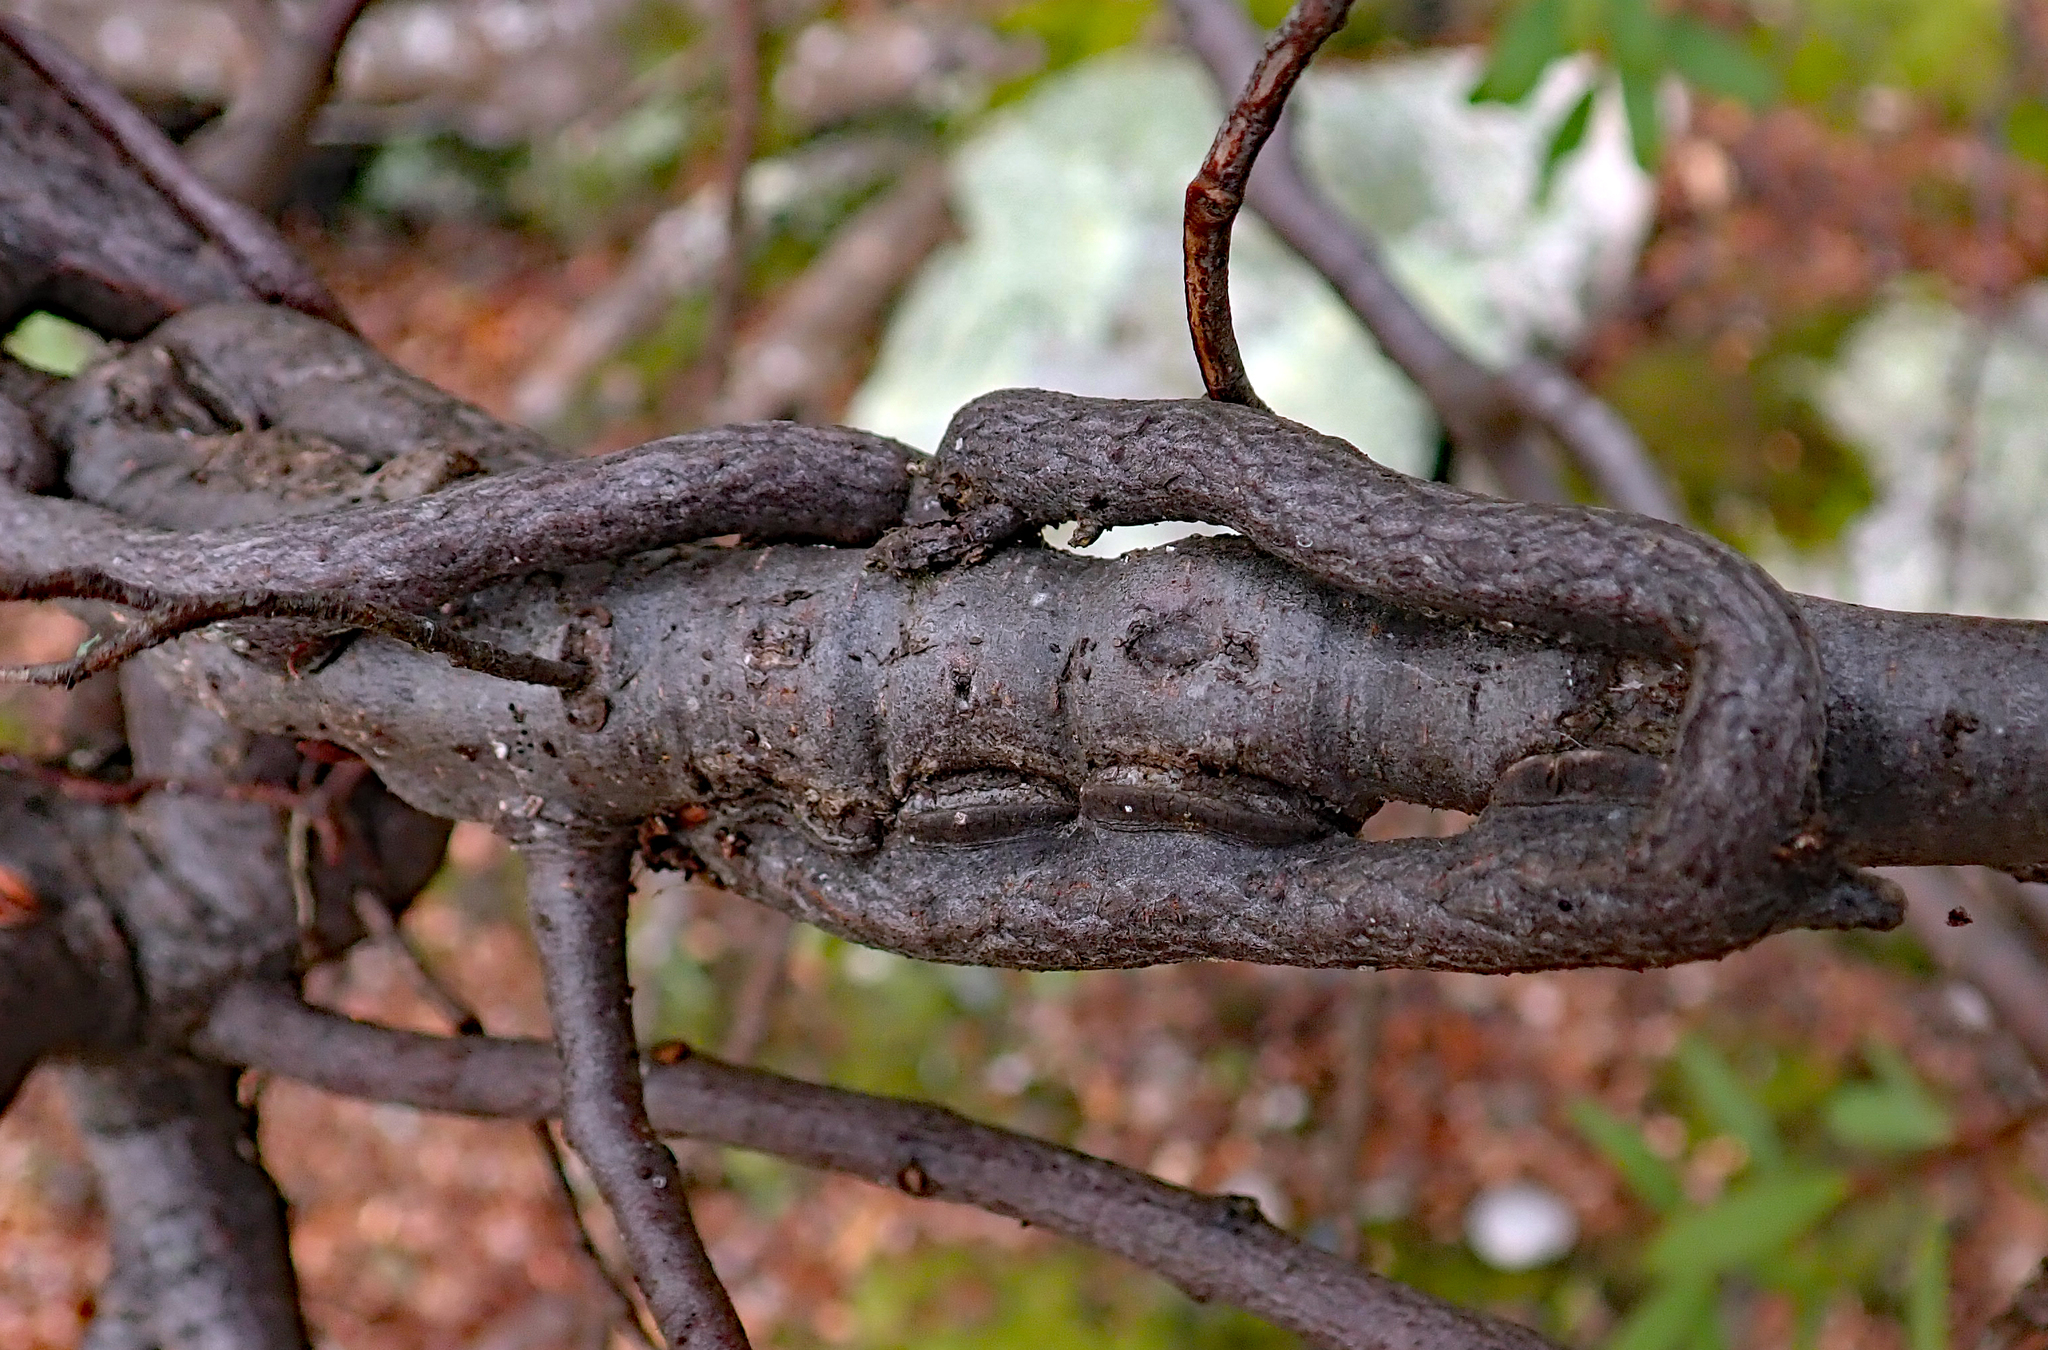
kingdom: Plantae
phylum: Tracheophyta
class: Magnoliopsida
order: Santalales
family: Loranthaceae
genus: Alepis
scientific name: Alepis flavida
